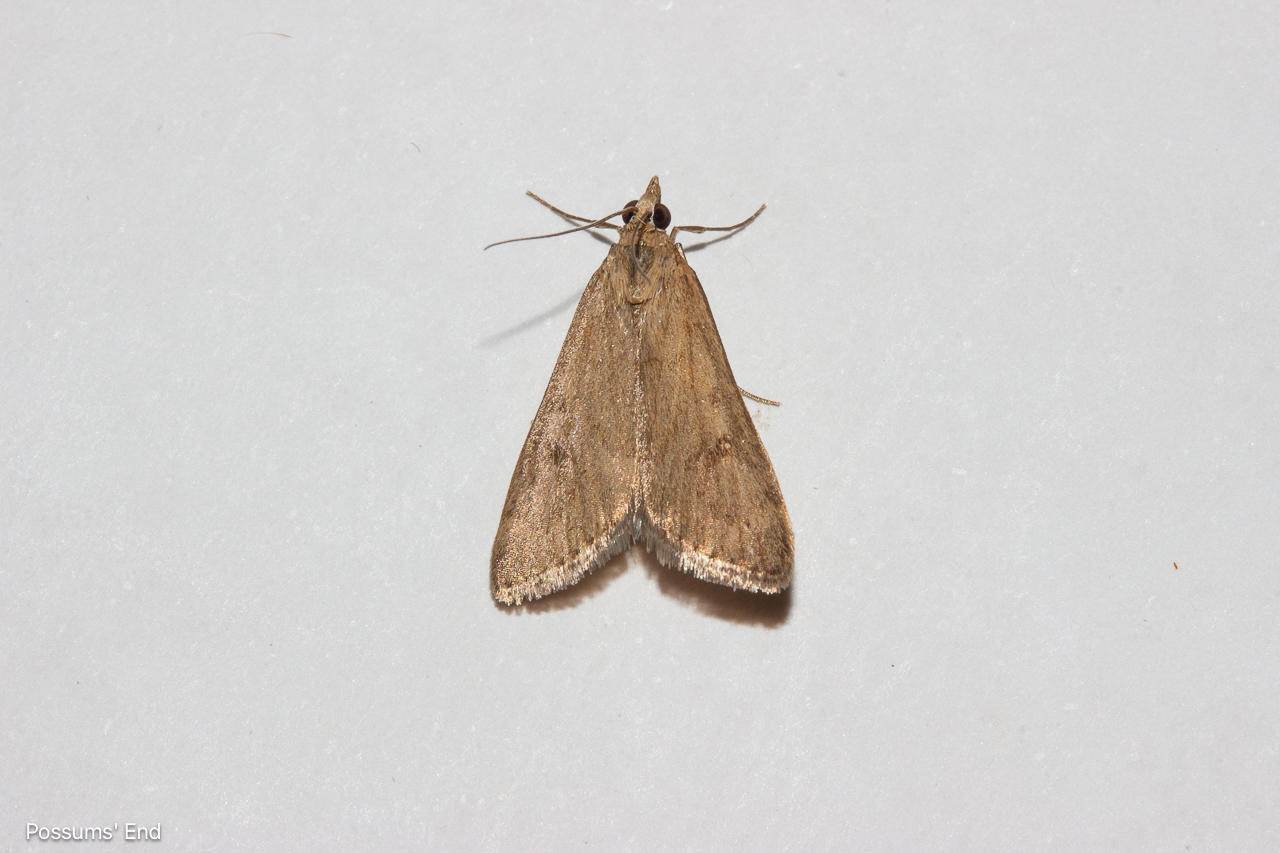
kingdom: Animalia
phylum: Arthropoda
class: Insecta
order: Lepidoptera
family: Crambidae
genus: Achyra
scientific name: Achyra affinitalis
